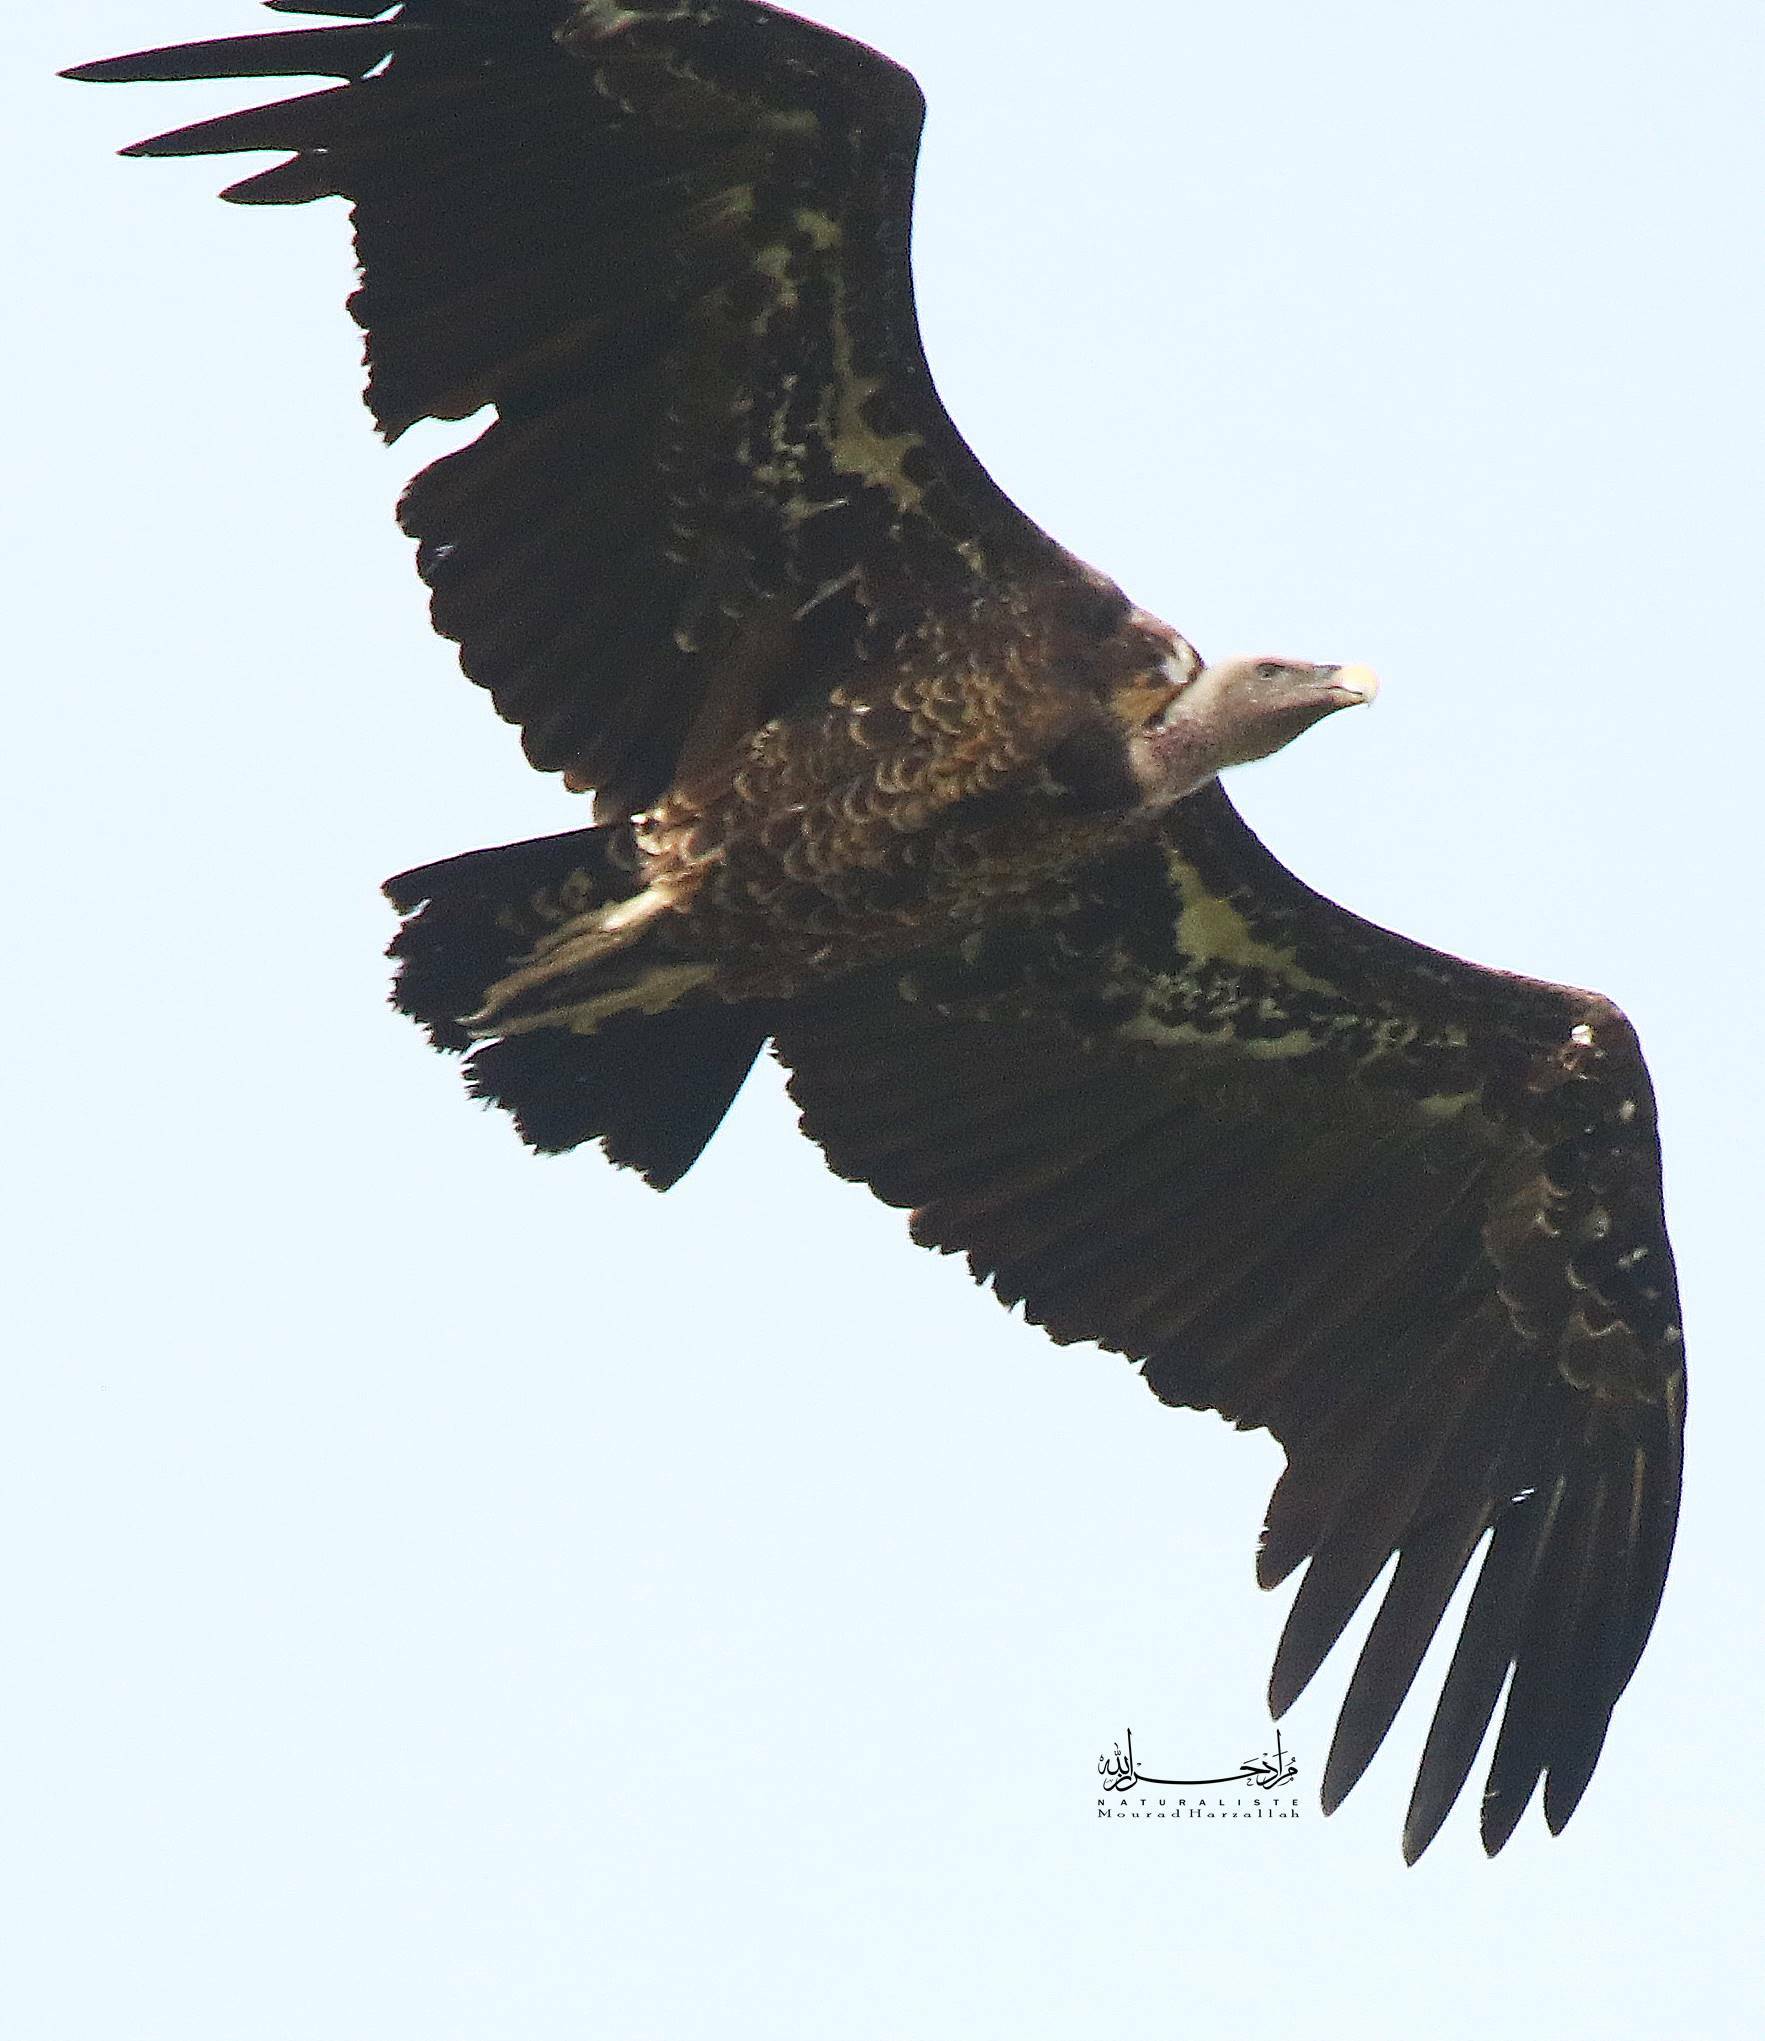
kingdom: Animalia
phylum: Chordata
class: Aves
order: Accipitriformes
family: Accipitridae
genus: Gyps
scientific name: Gyps rueppellii
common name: Rüppell's vulture
